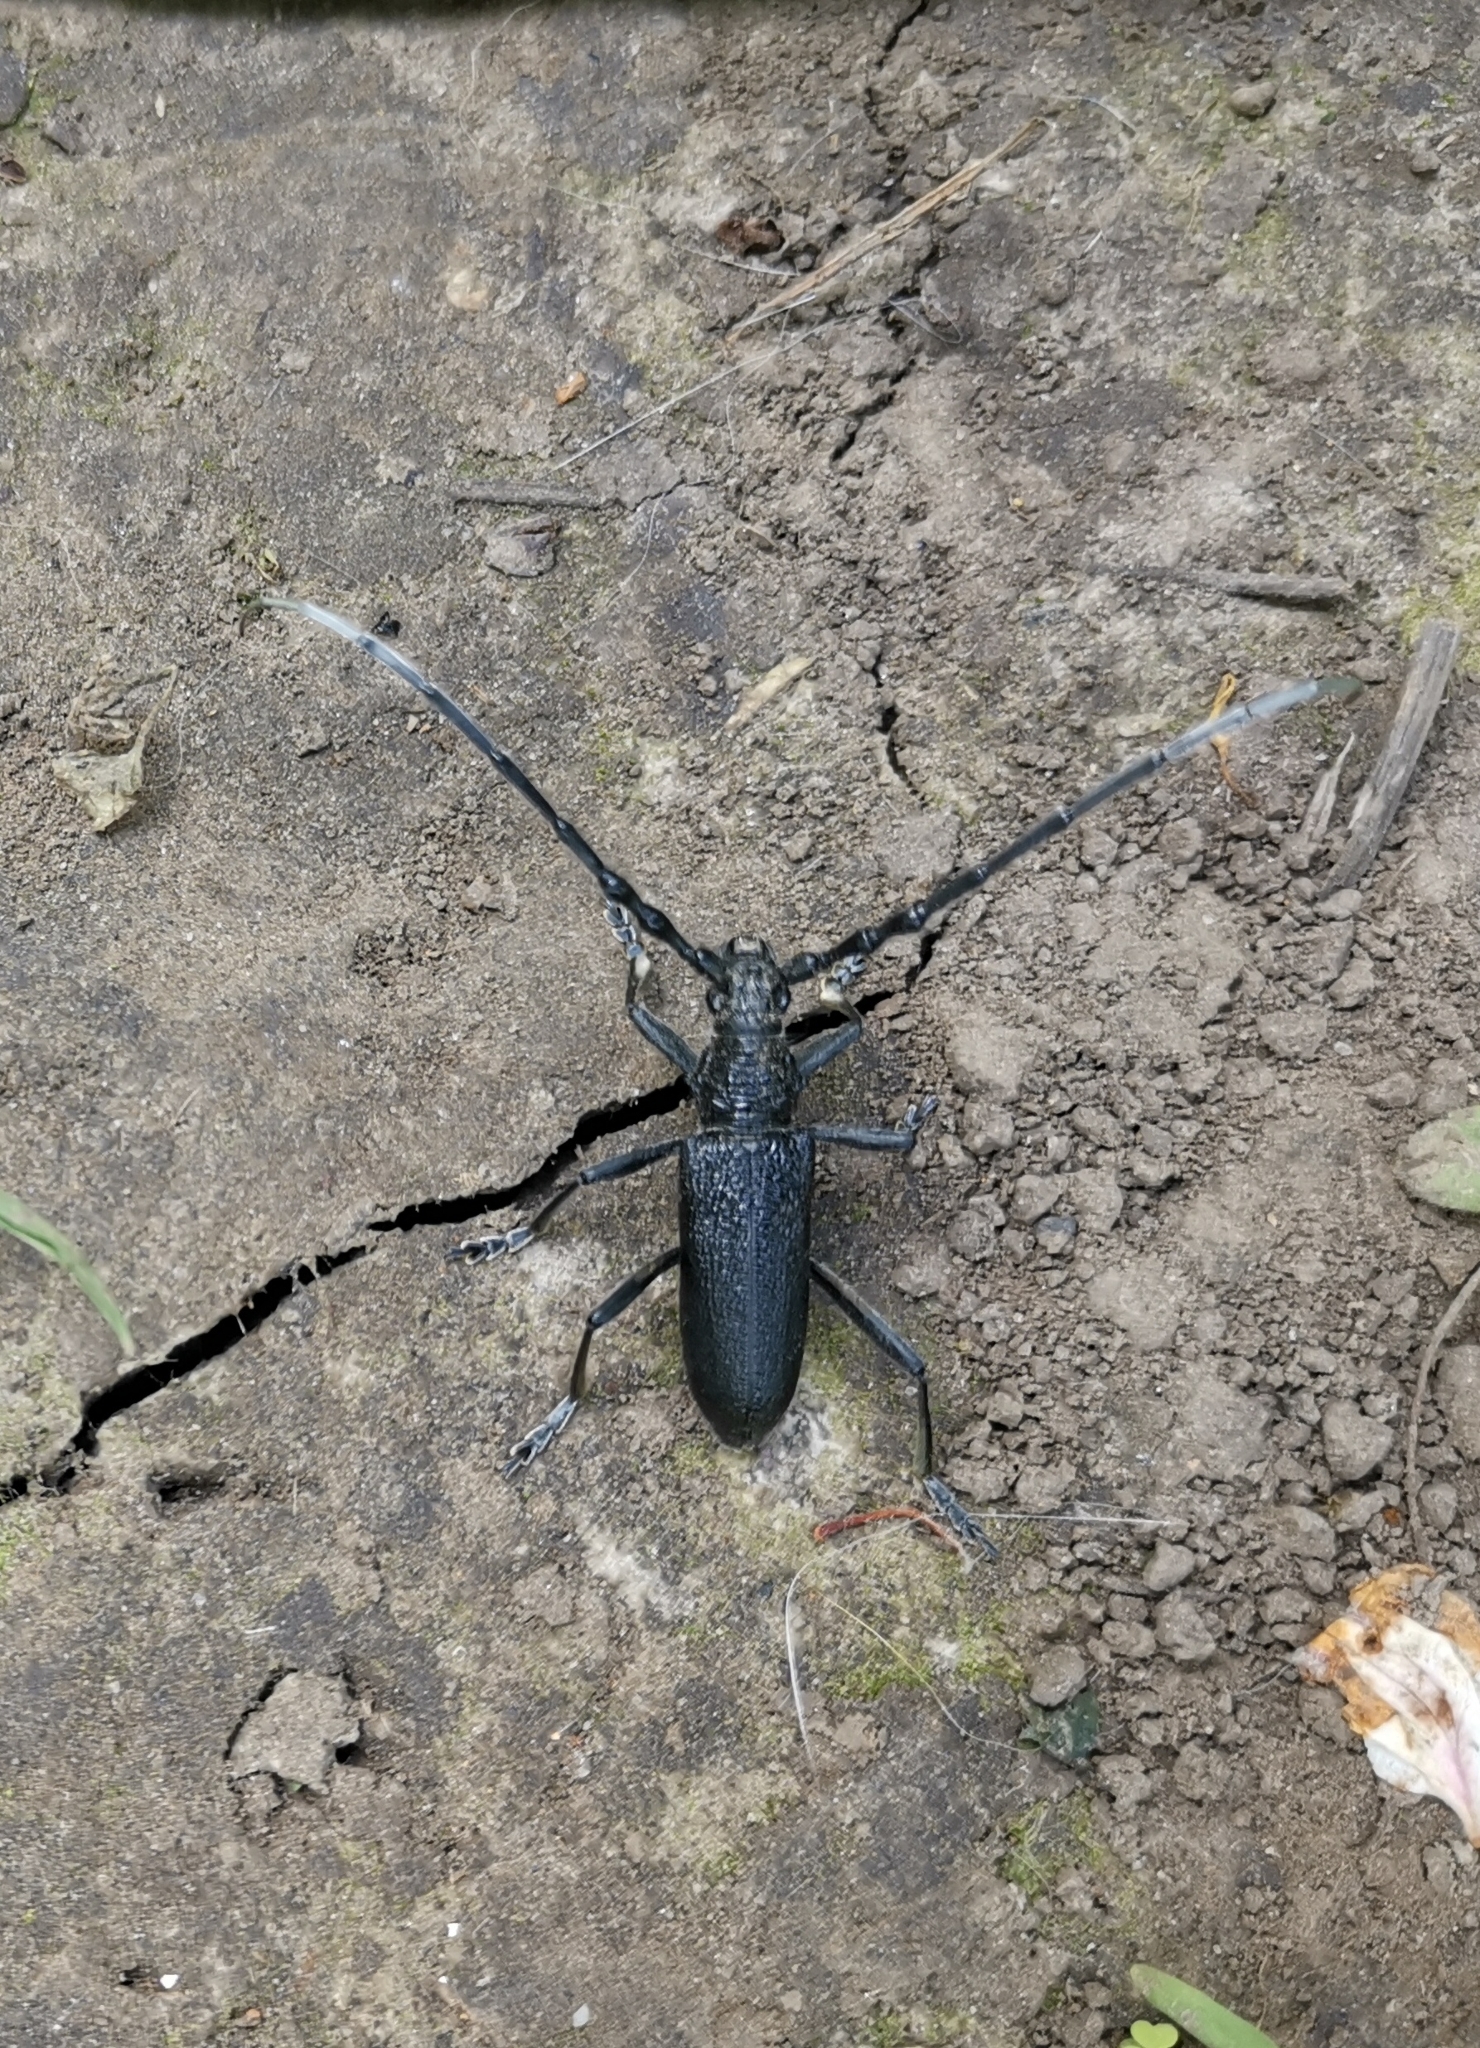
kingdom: Animalia
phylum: Arthropoda
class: Insecta
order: Coleoptera
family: Cerambycidae
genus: Cerambyx
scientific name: Cerambyx scopolii
